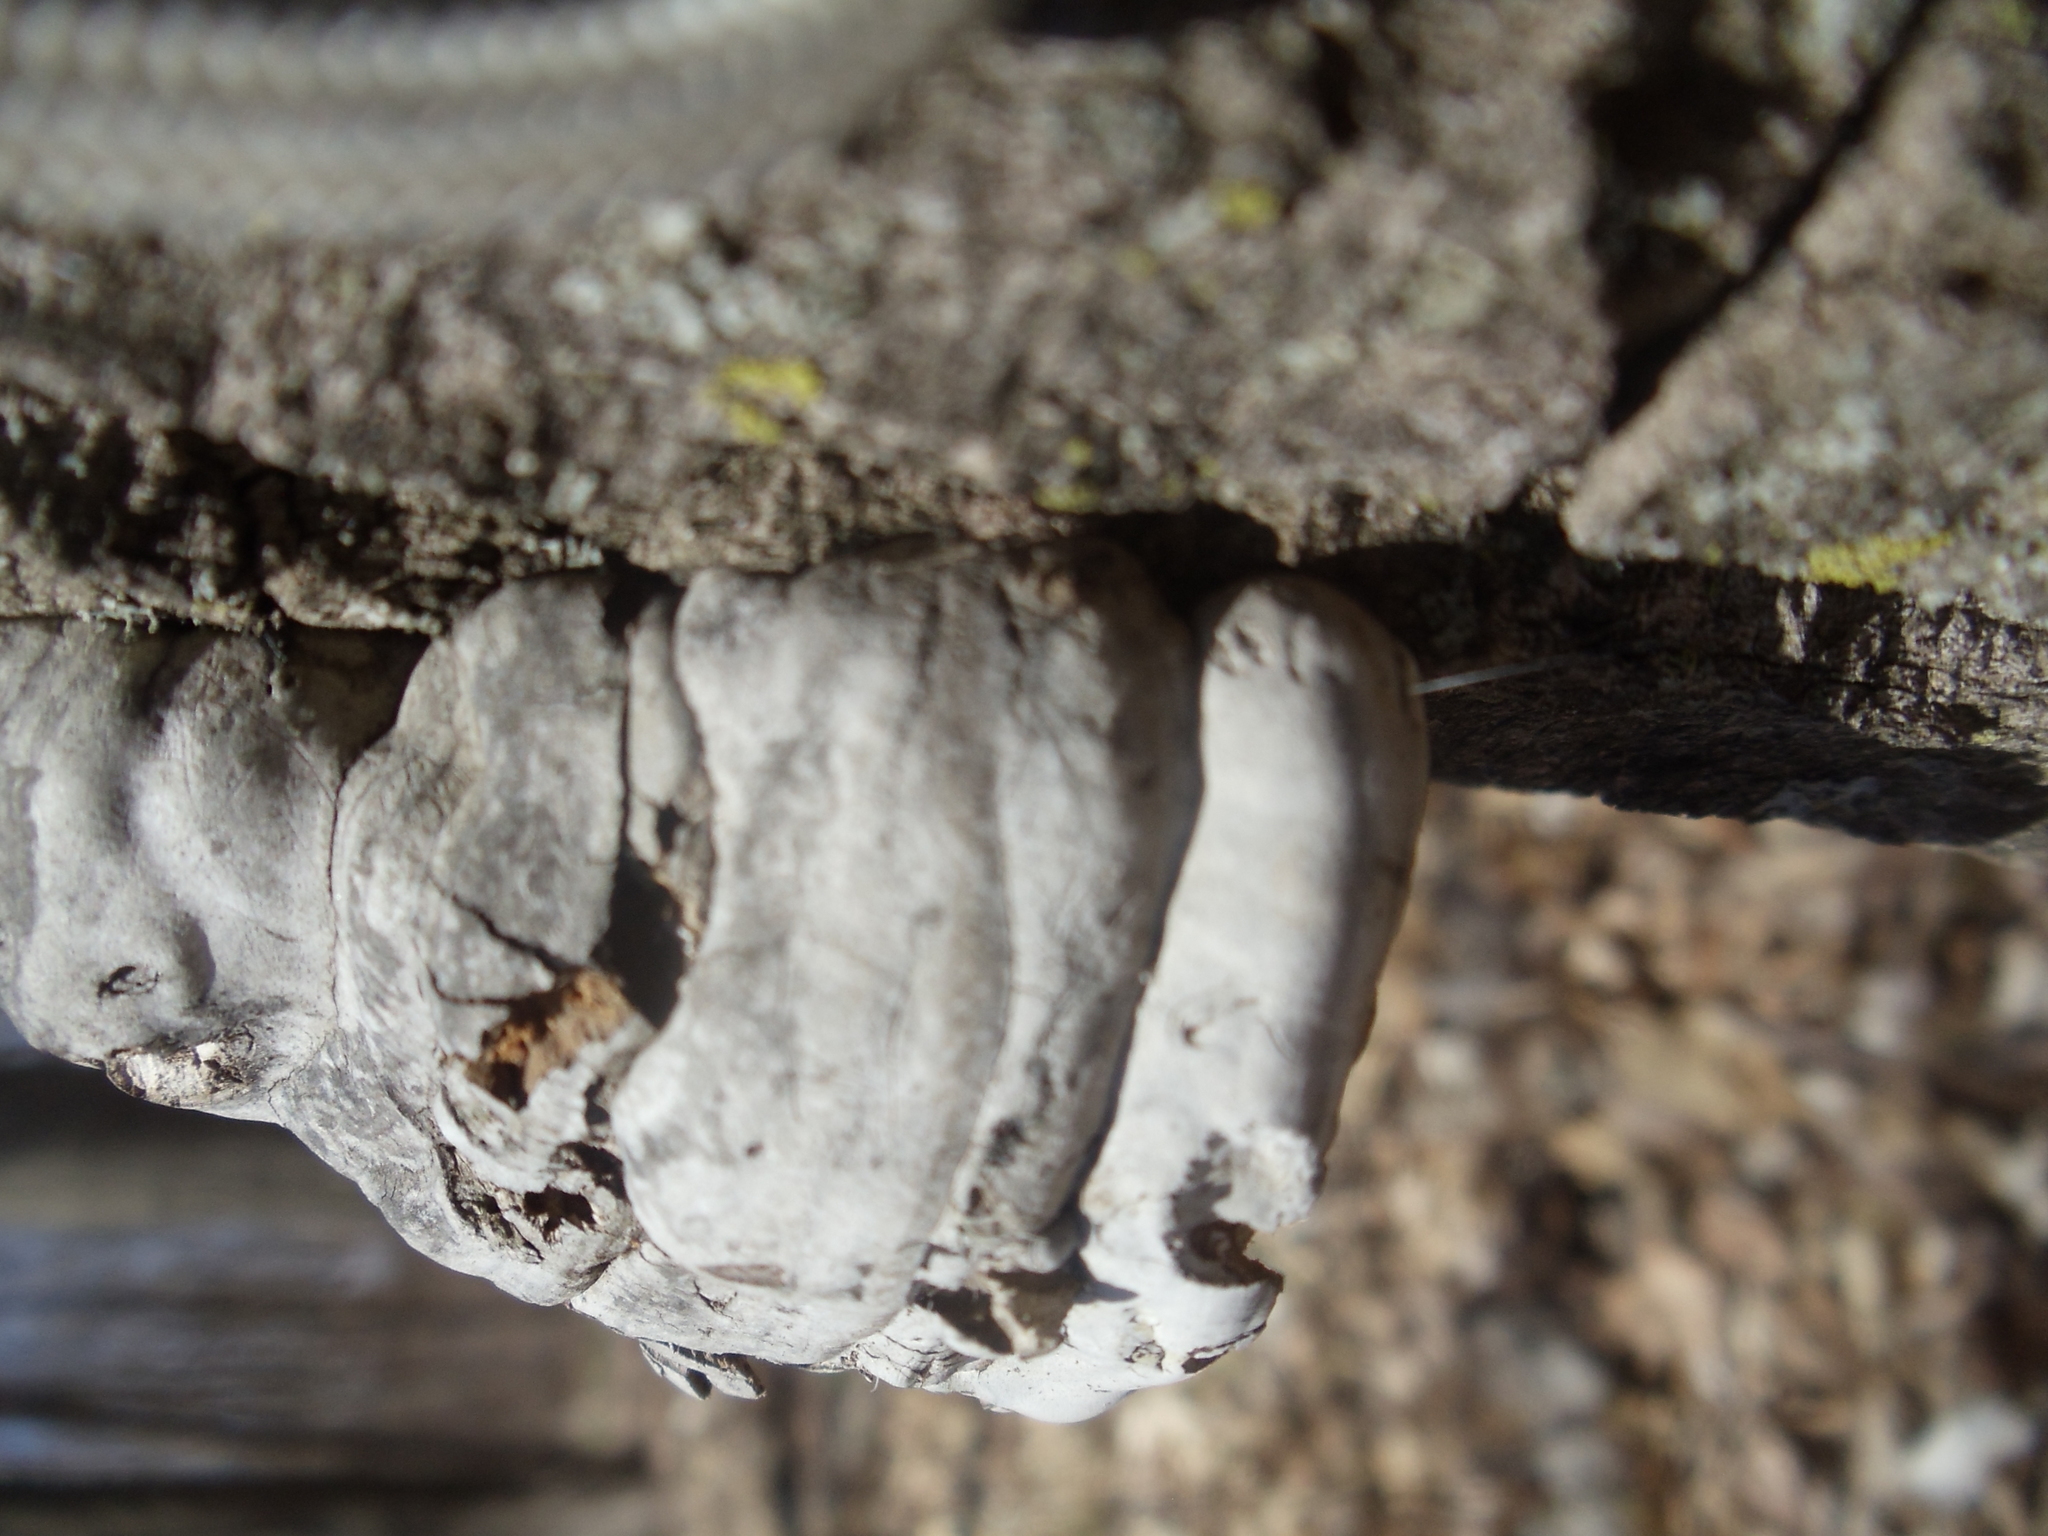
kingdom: Fungi
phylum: Basidiomycota
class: Agaricomycetes
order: Polyporales
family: Polyporaceae
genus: Fomes
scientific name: Fomes fomentarius
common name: Hoof fungus
